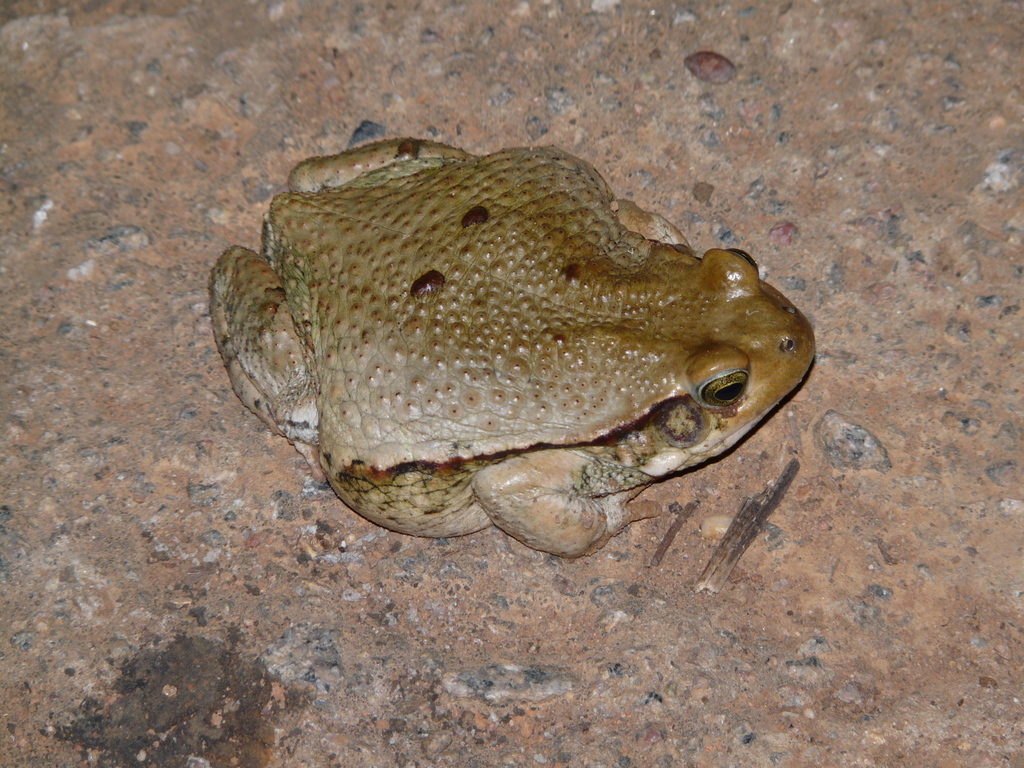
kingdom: Animalia
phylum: Chordata
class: Amphibia
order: Anura
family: Bufonidae
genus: Schismaderma
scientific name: Schismaderma carens
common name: African split-skin toad
